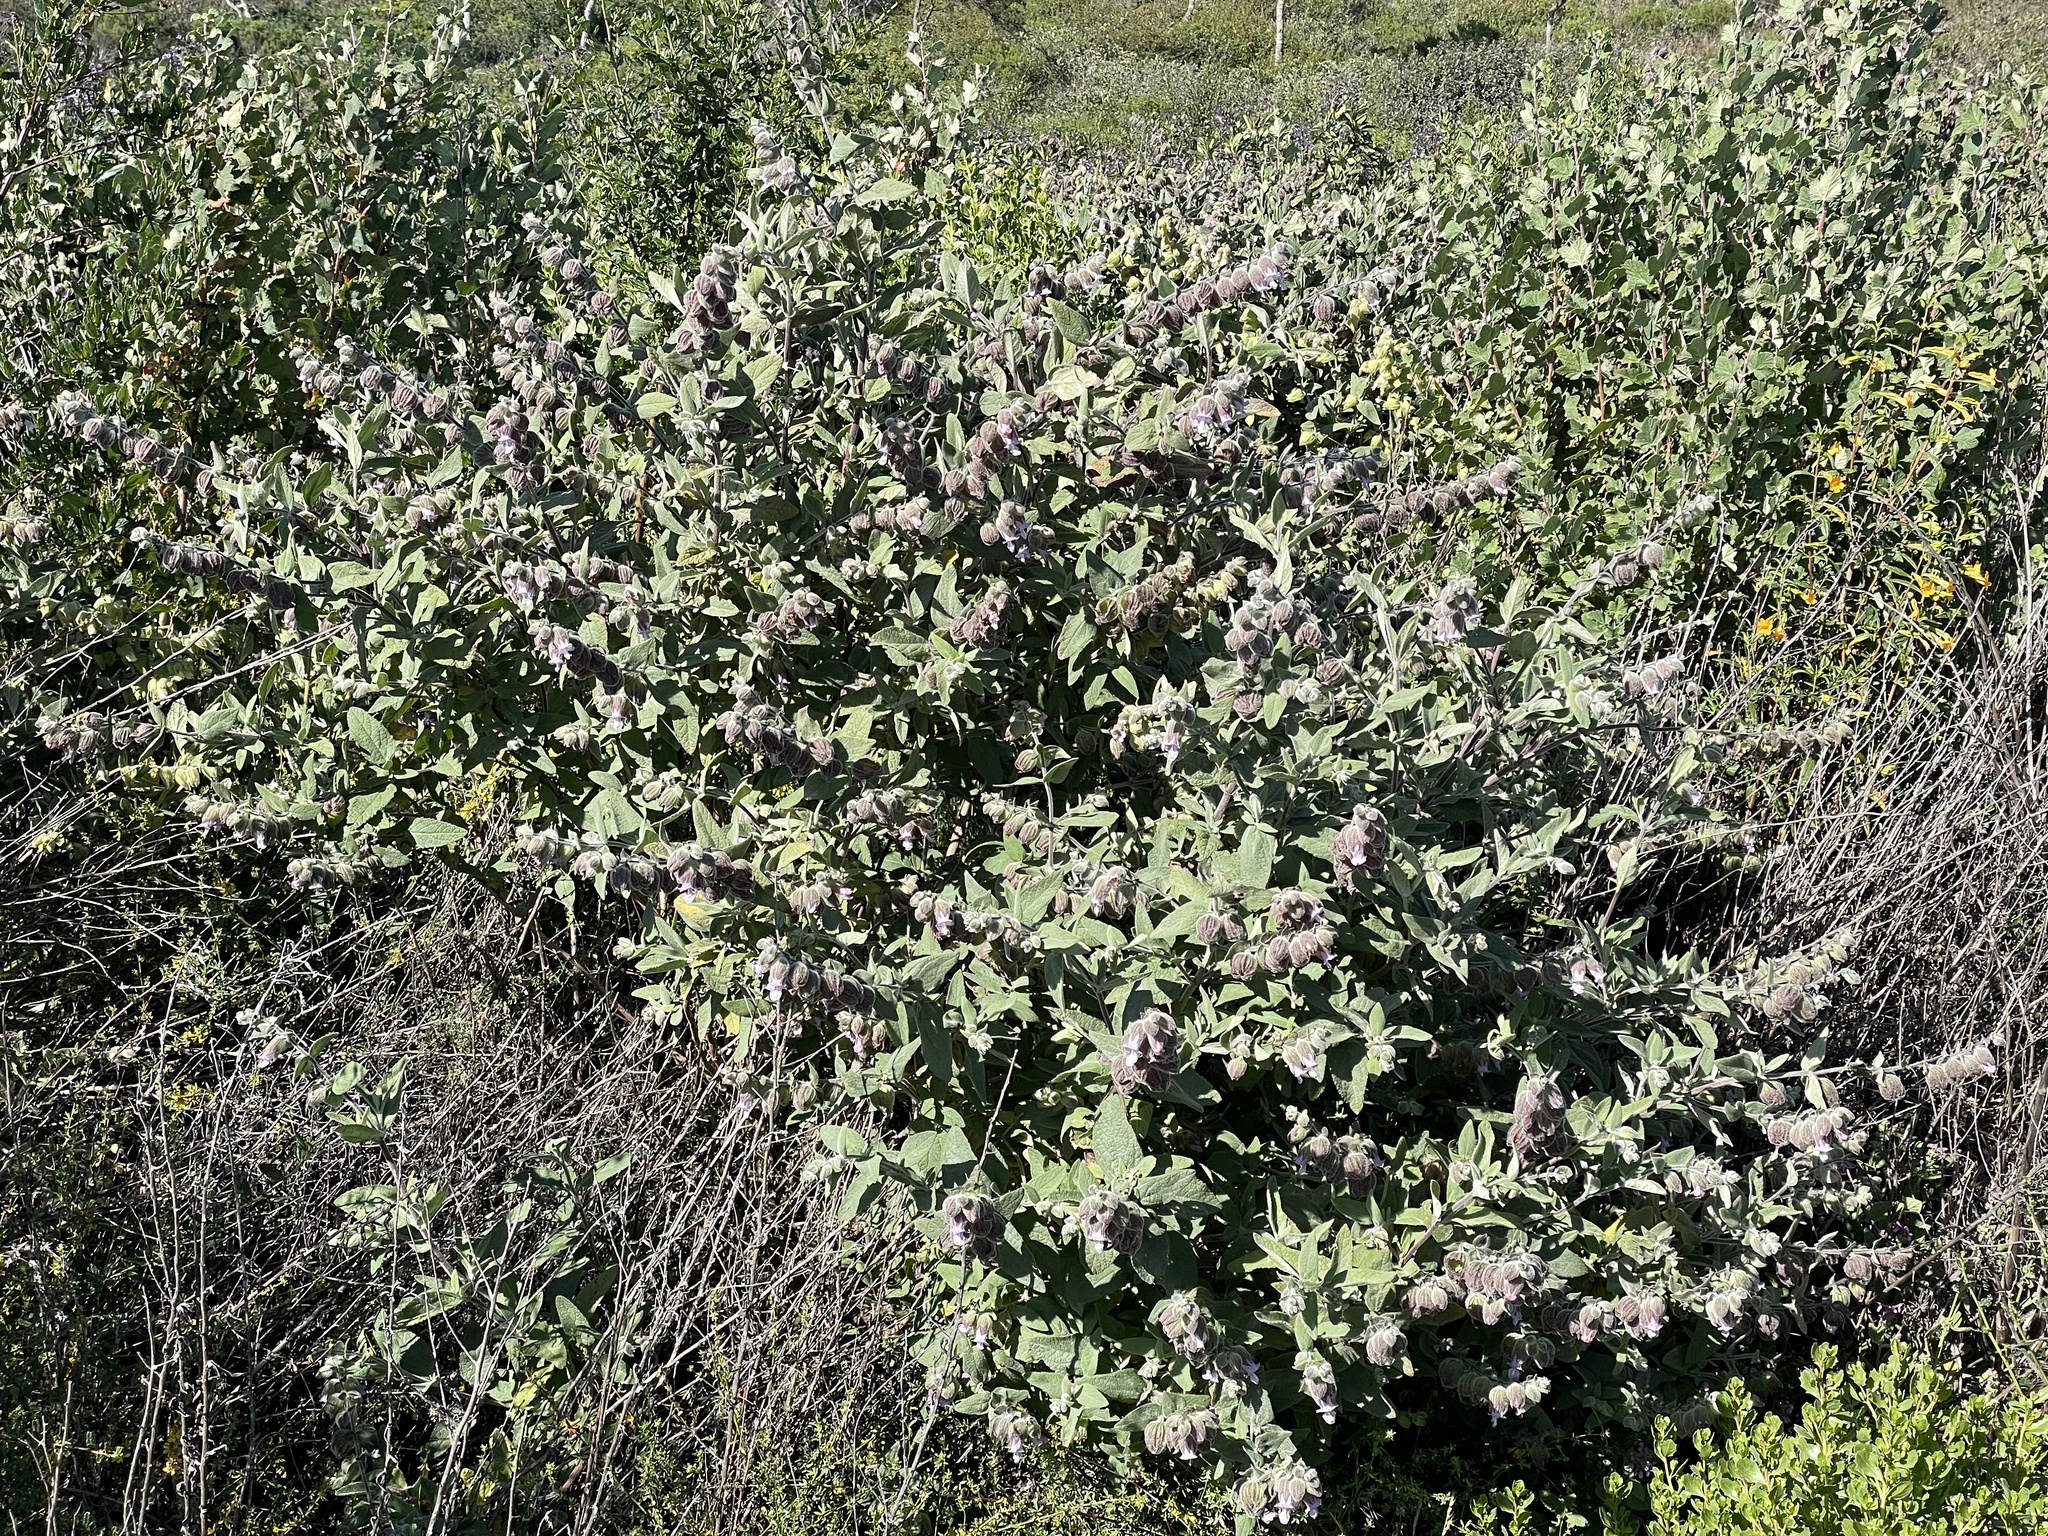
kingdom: Plantae
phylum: Tracheophyta
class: Magnoliopsida
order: Lamiales
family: Lamiaceae
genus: Lepechinia
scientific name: Lepechinia calycina
